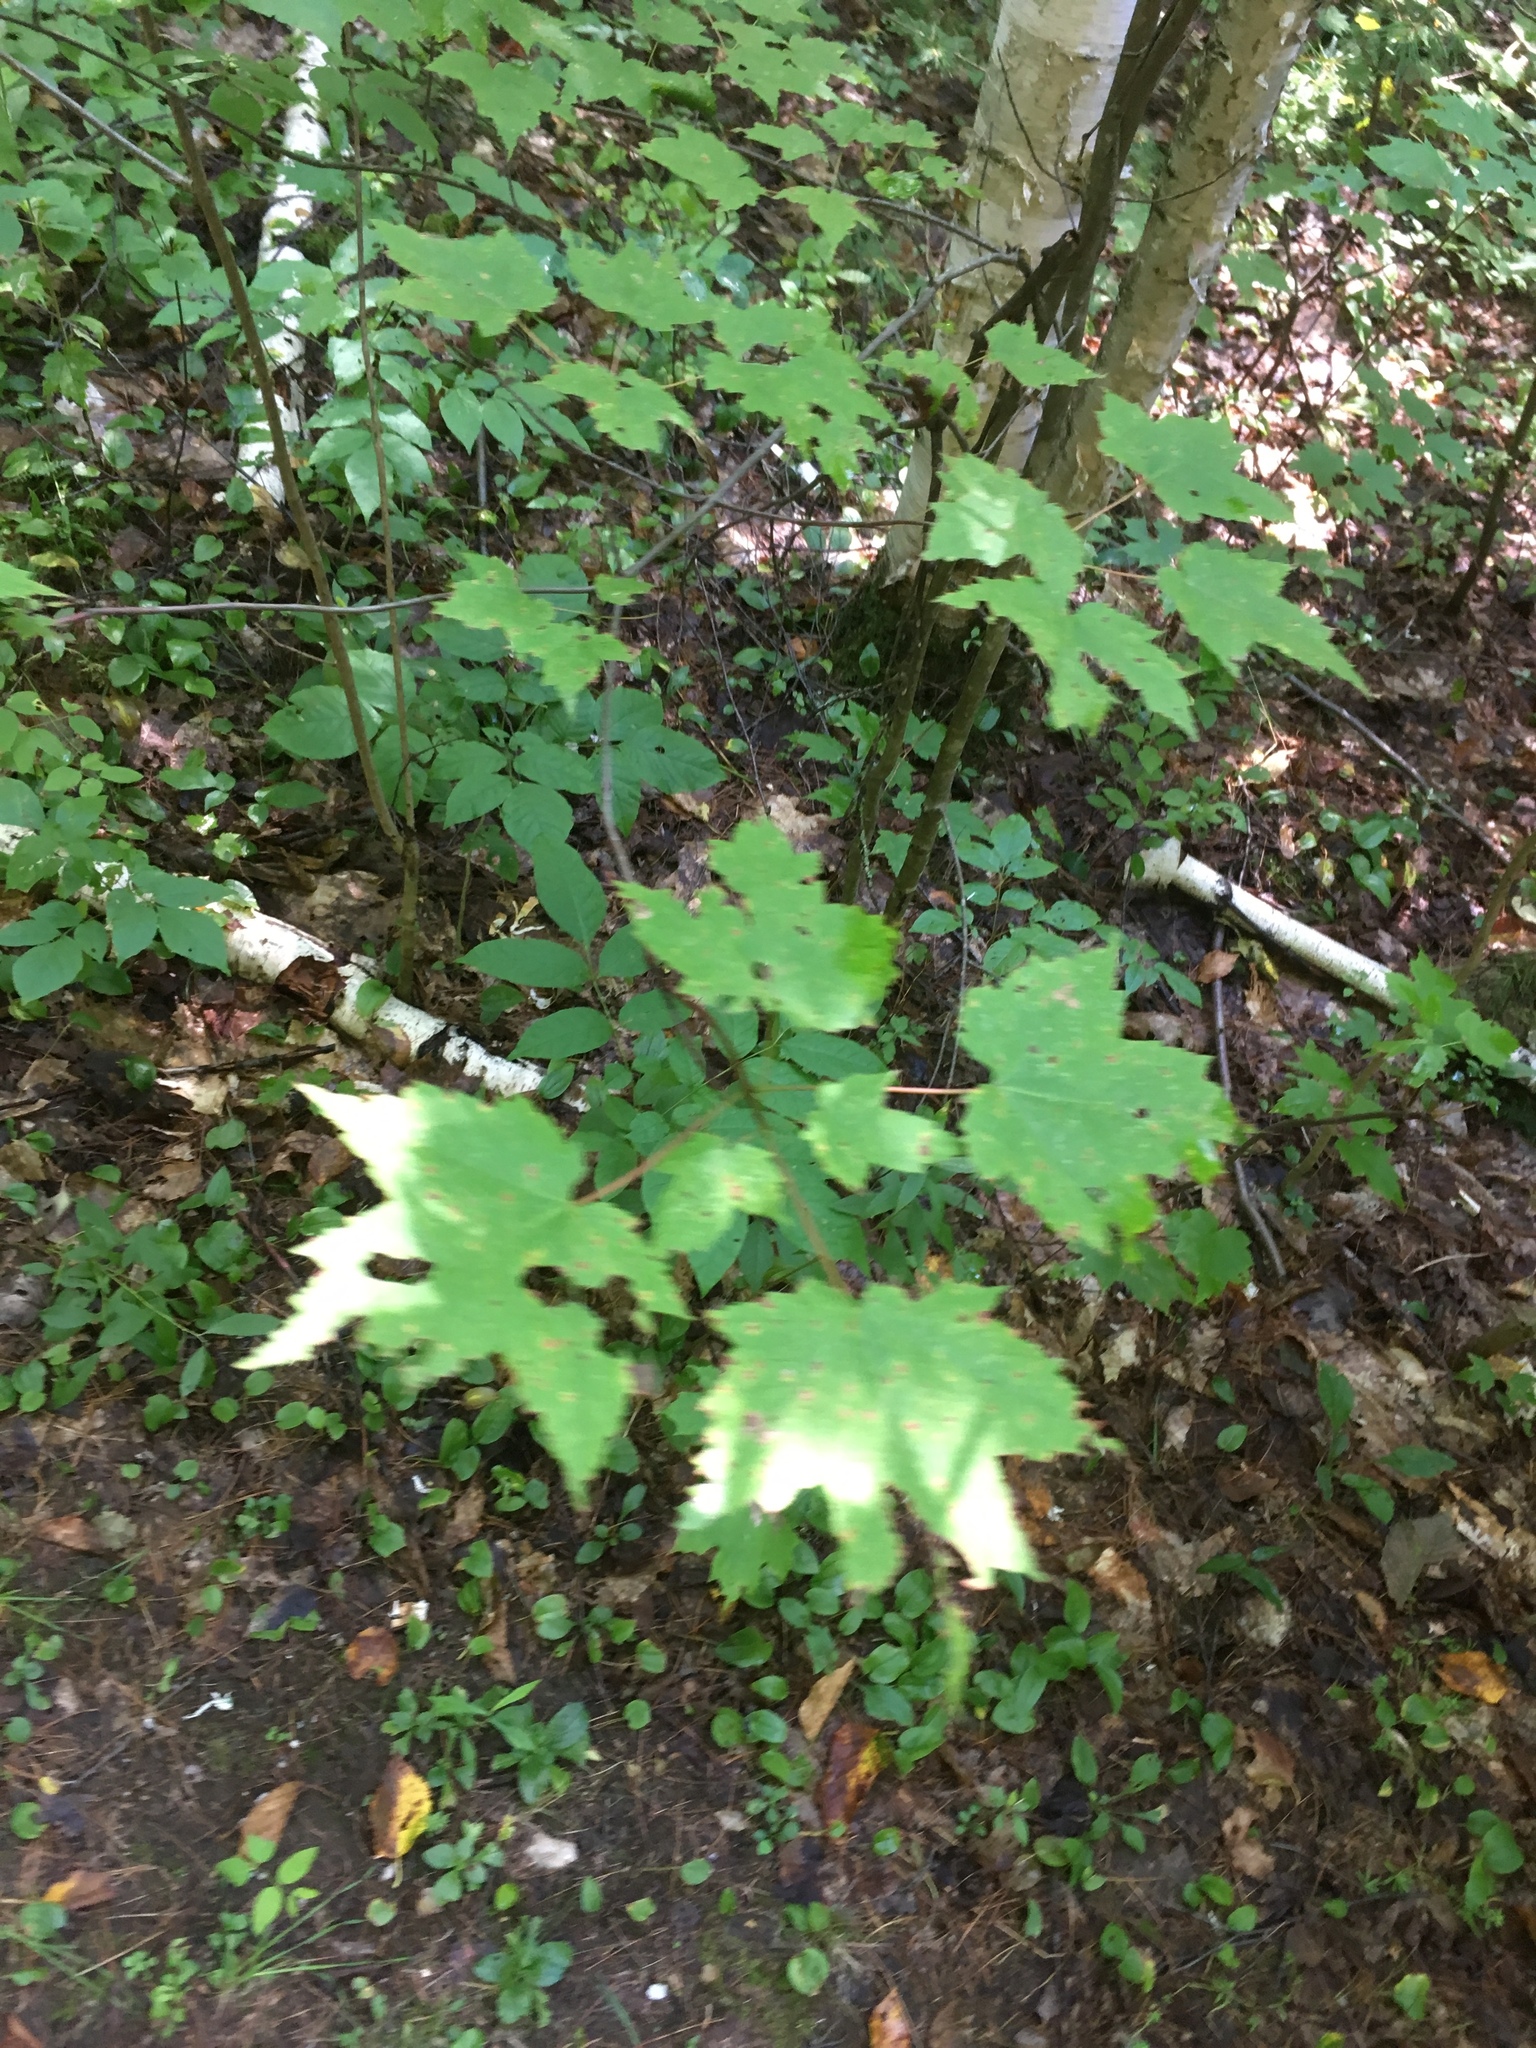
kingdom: Plantae
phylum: Tracheophyta
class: Magnoliopsida
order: Sapindales
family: Sapindaceae
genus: Acer
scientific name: Acer rubrum
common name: Red maple
